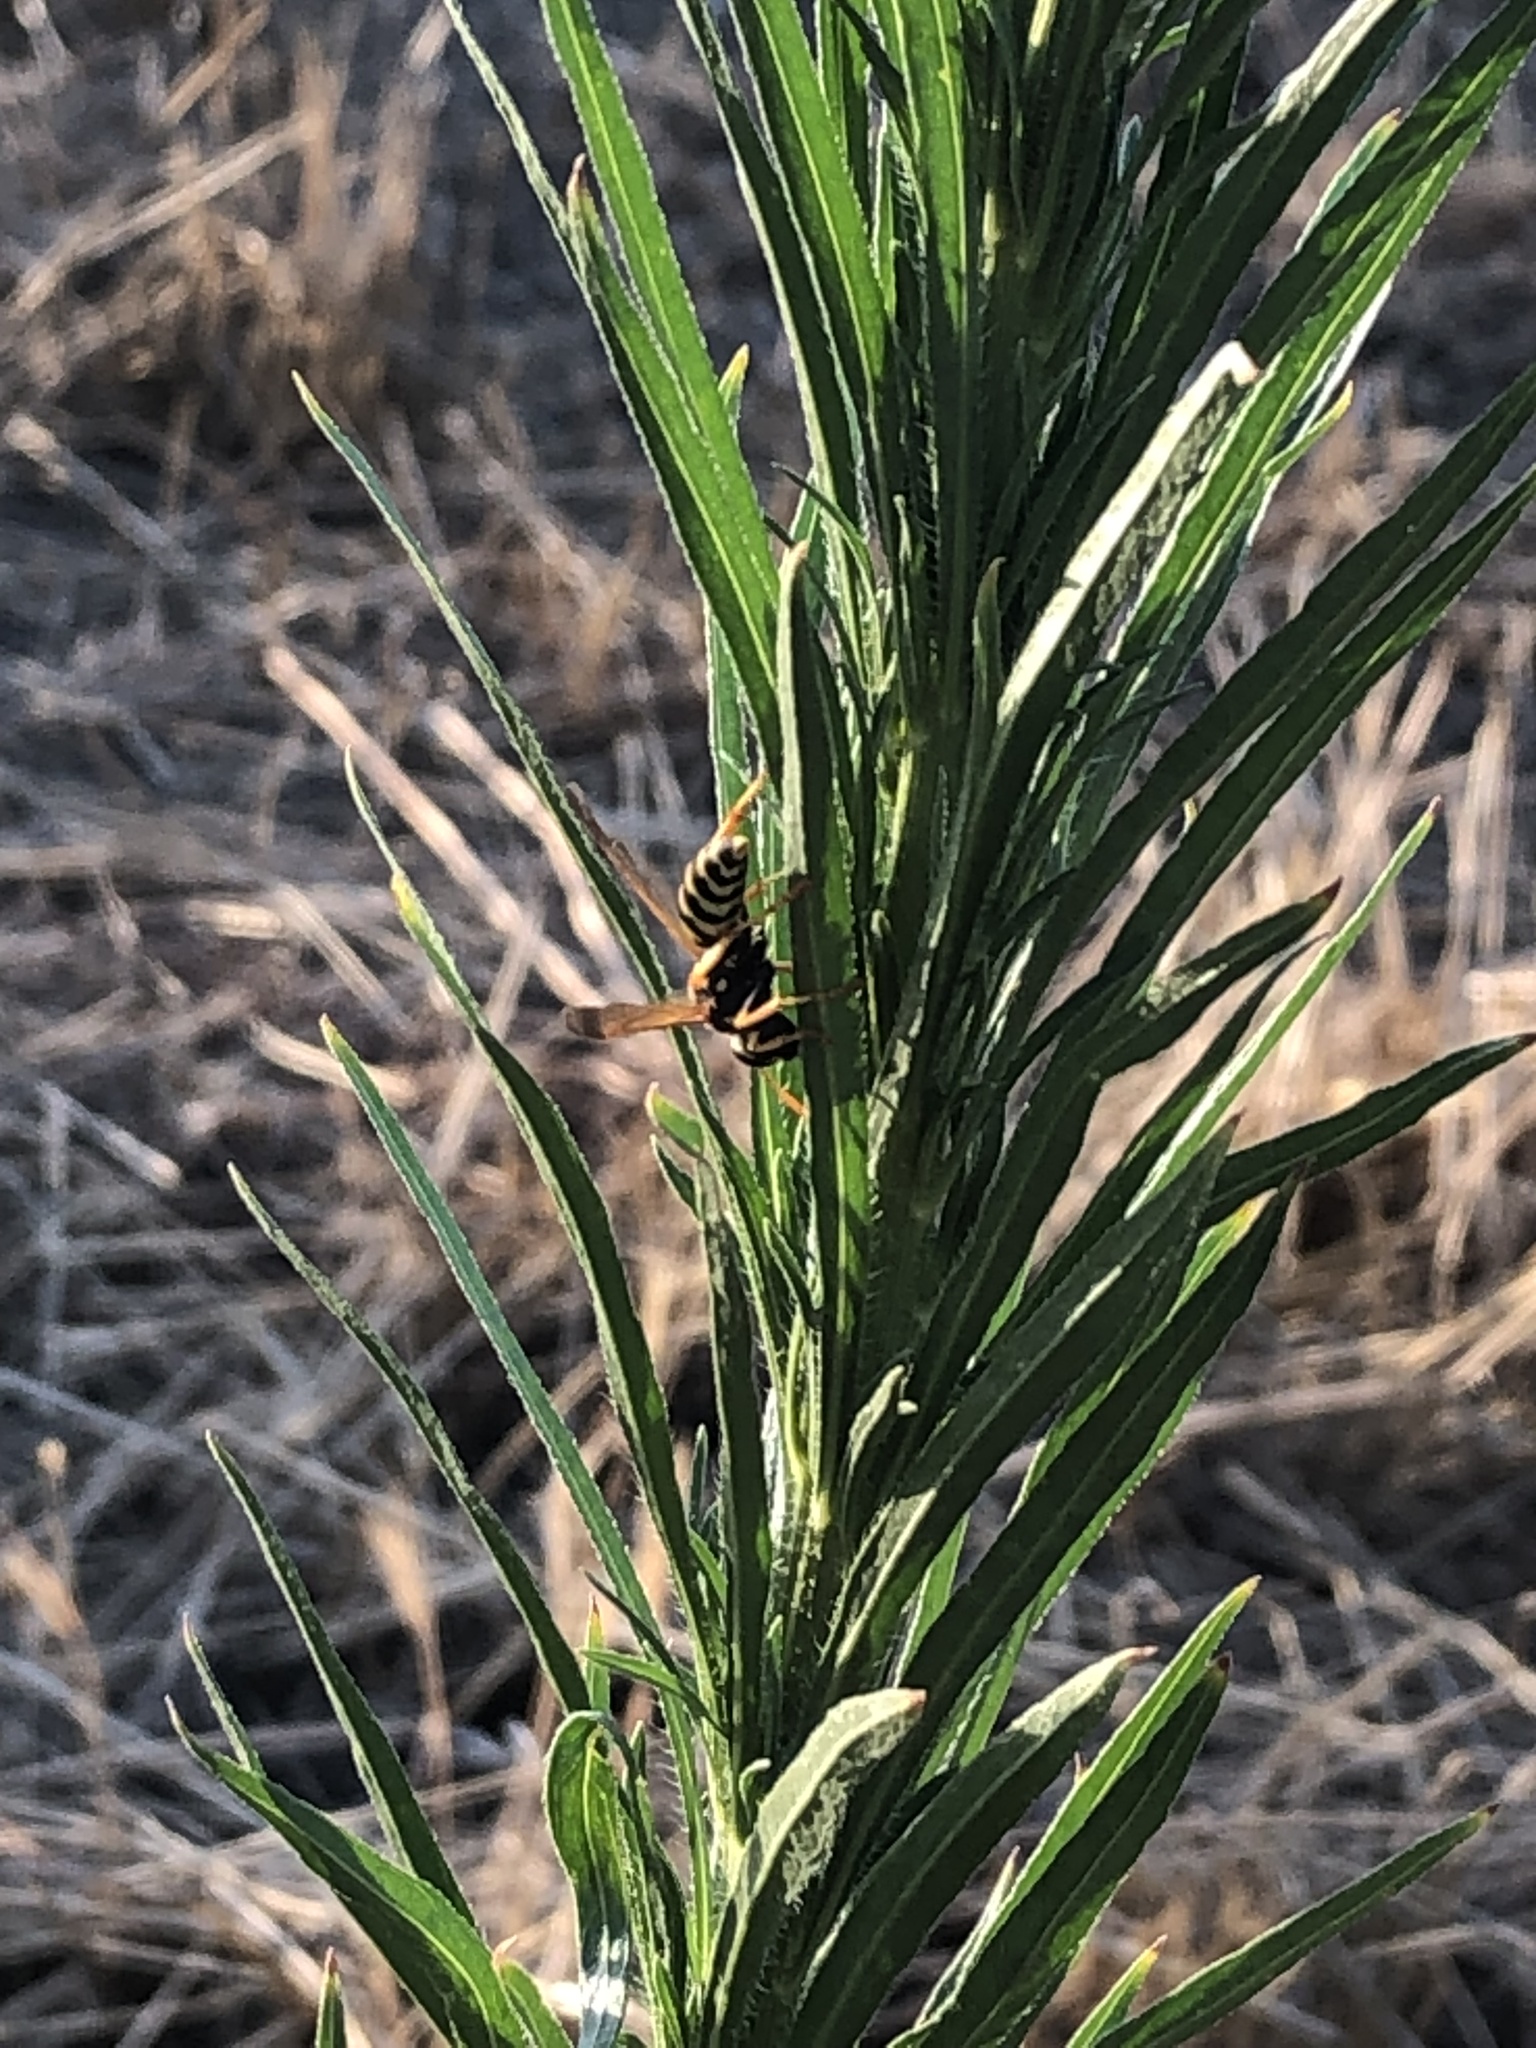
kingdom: Animalia
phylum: Arthropoda
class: Insecta
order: Hymenoptera
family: Eumenidae
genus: Polistes
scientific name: Polistes dominula
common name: Paper wasp
